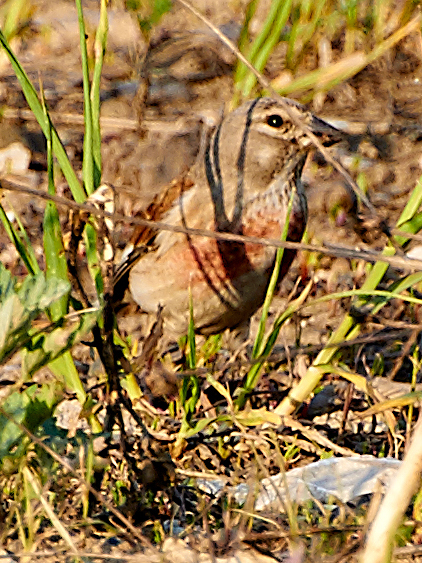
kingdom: Animalia
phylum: Chordata
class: Aves
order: Passeriformes
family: Fringillidae
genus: Linaria
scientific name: Linaria cannabina
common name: Common linnet
